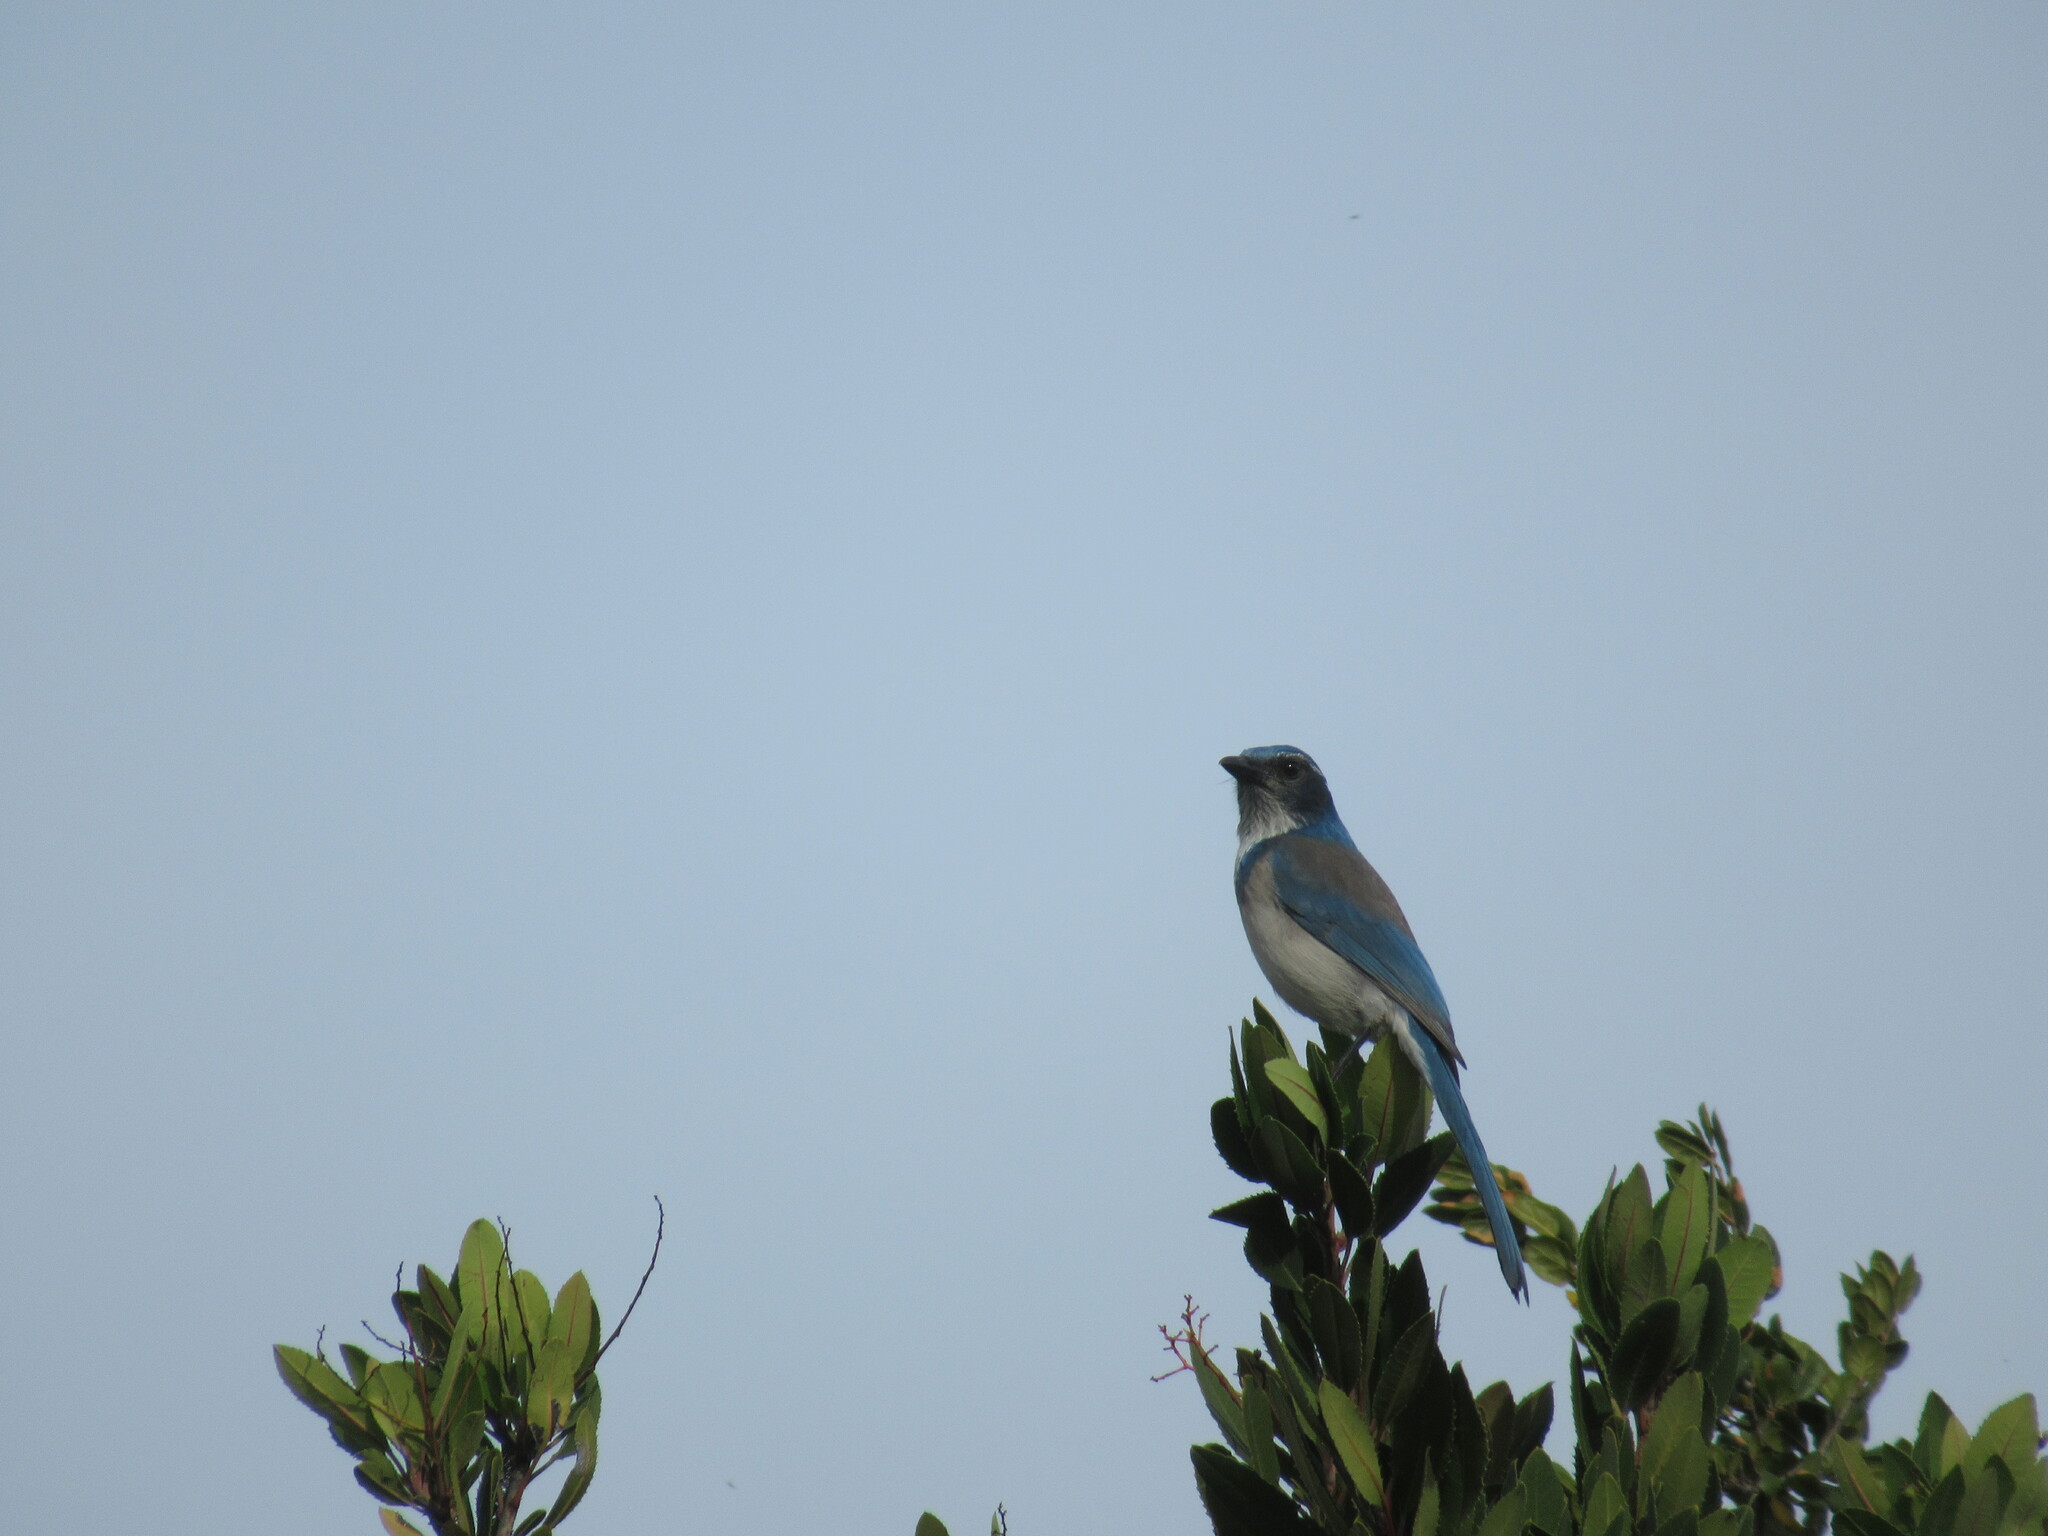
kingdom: Animalia
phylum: Chordata
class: Aves
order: Passeriformes
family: Corvidae
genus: Aphelocoma
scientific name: Aphelocoma californica
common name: California scrub-jay
